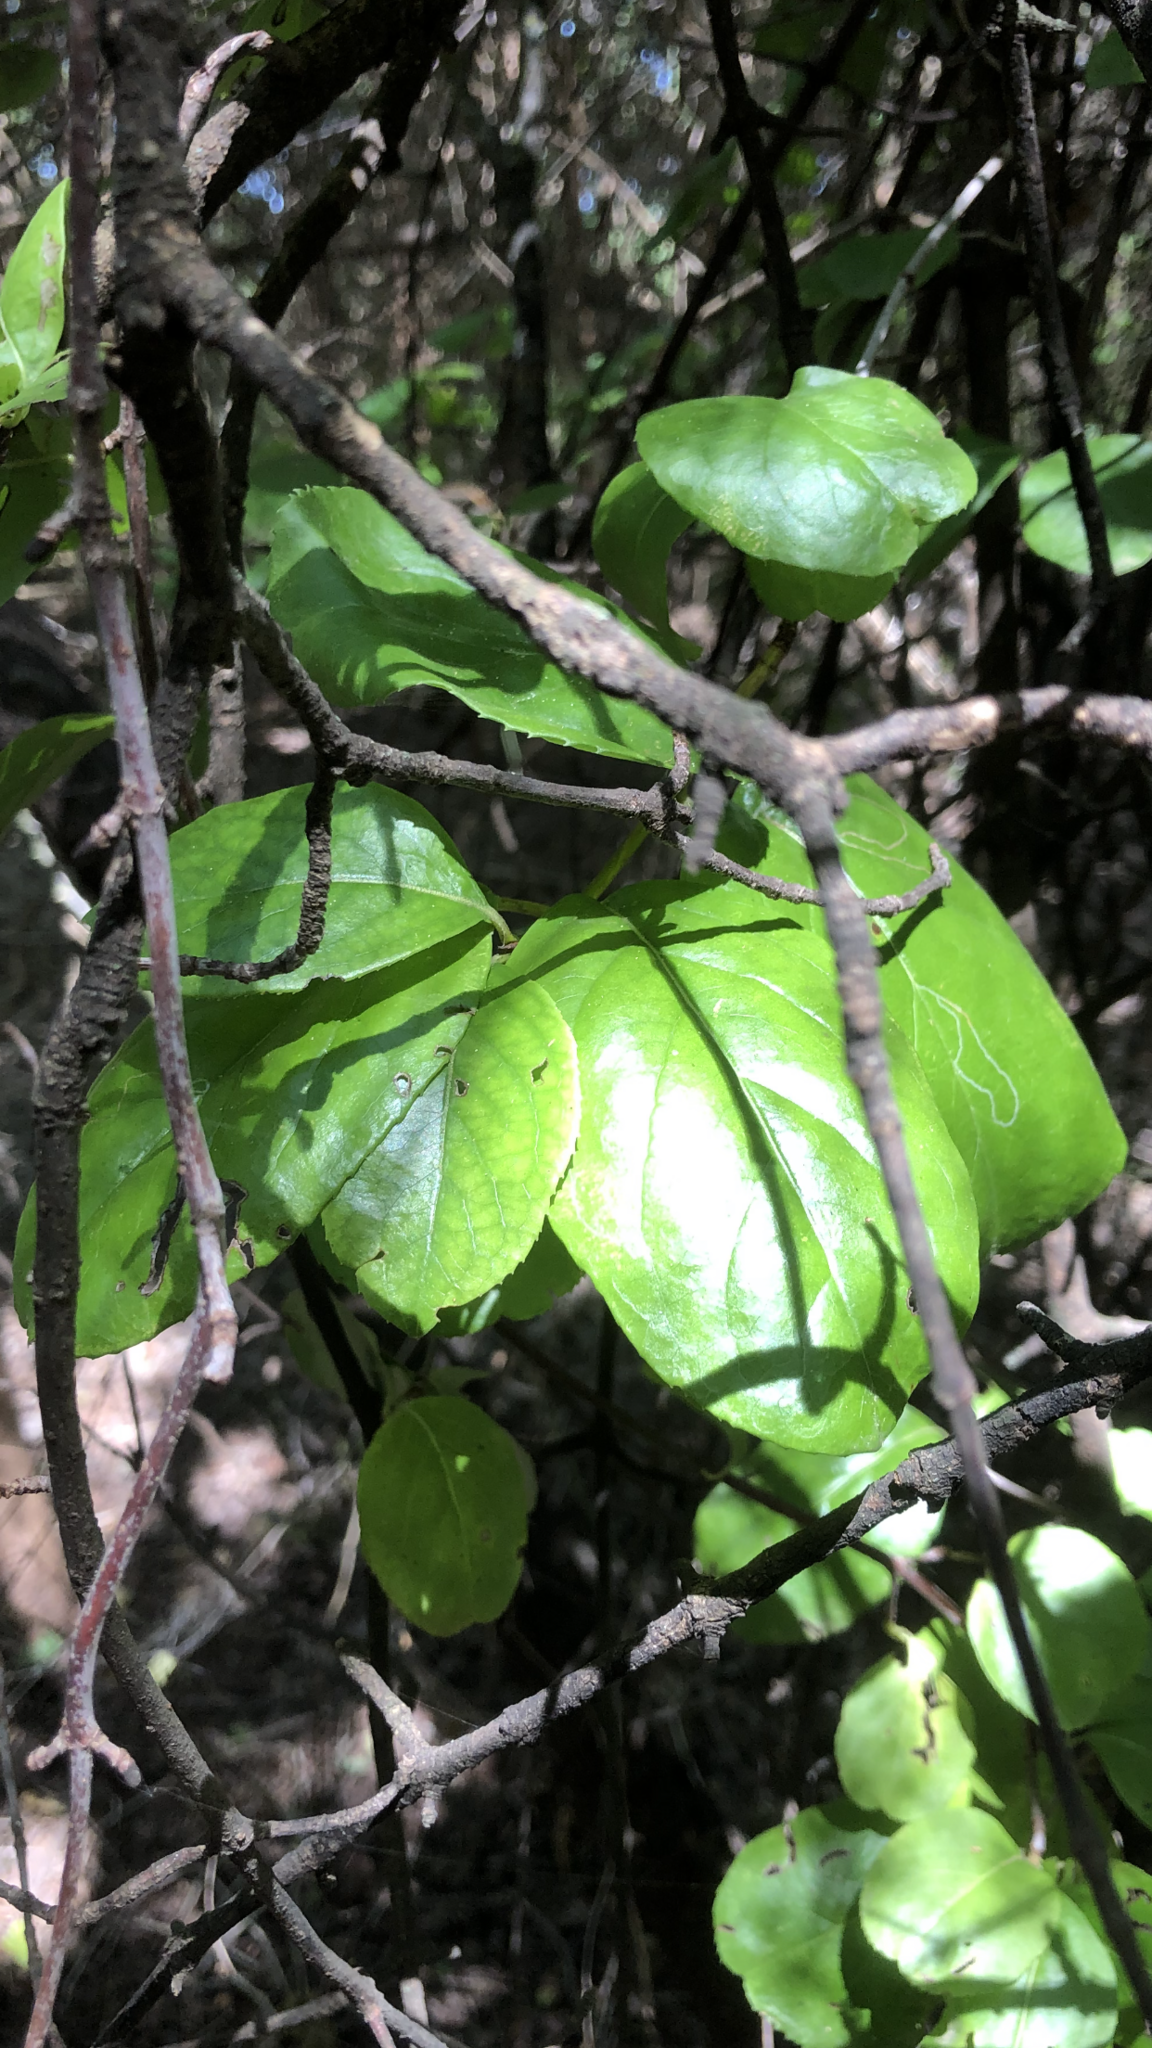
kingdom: Plantae
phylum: Tracheophyta
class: Magnoliopsida
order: Dipsacales
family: Viburnaceae
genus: Viburnum
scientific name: Viburnum rufidulum
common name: Blue haw
